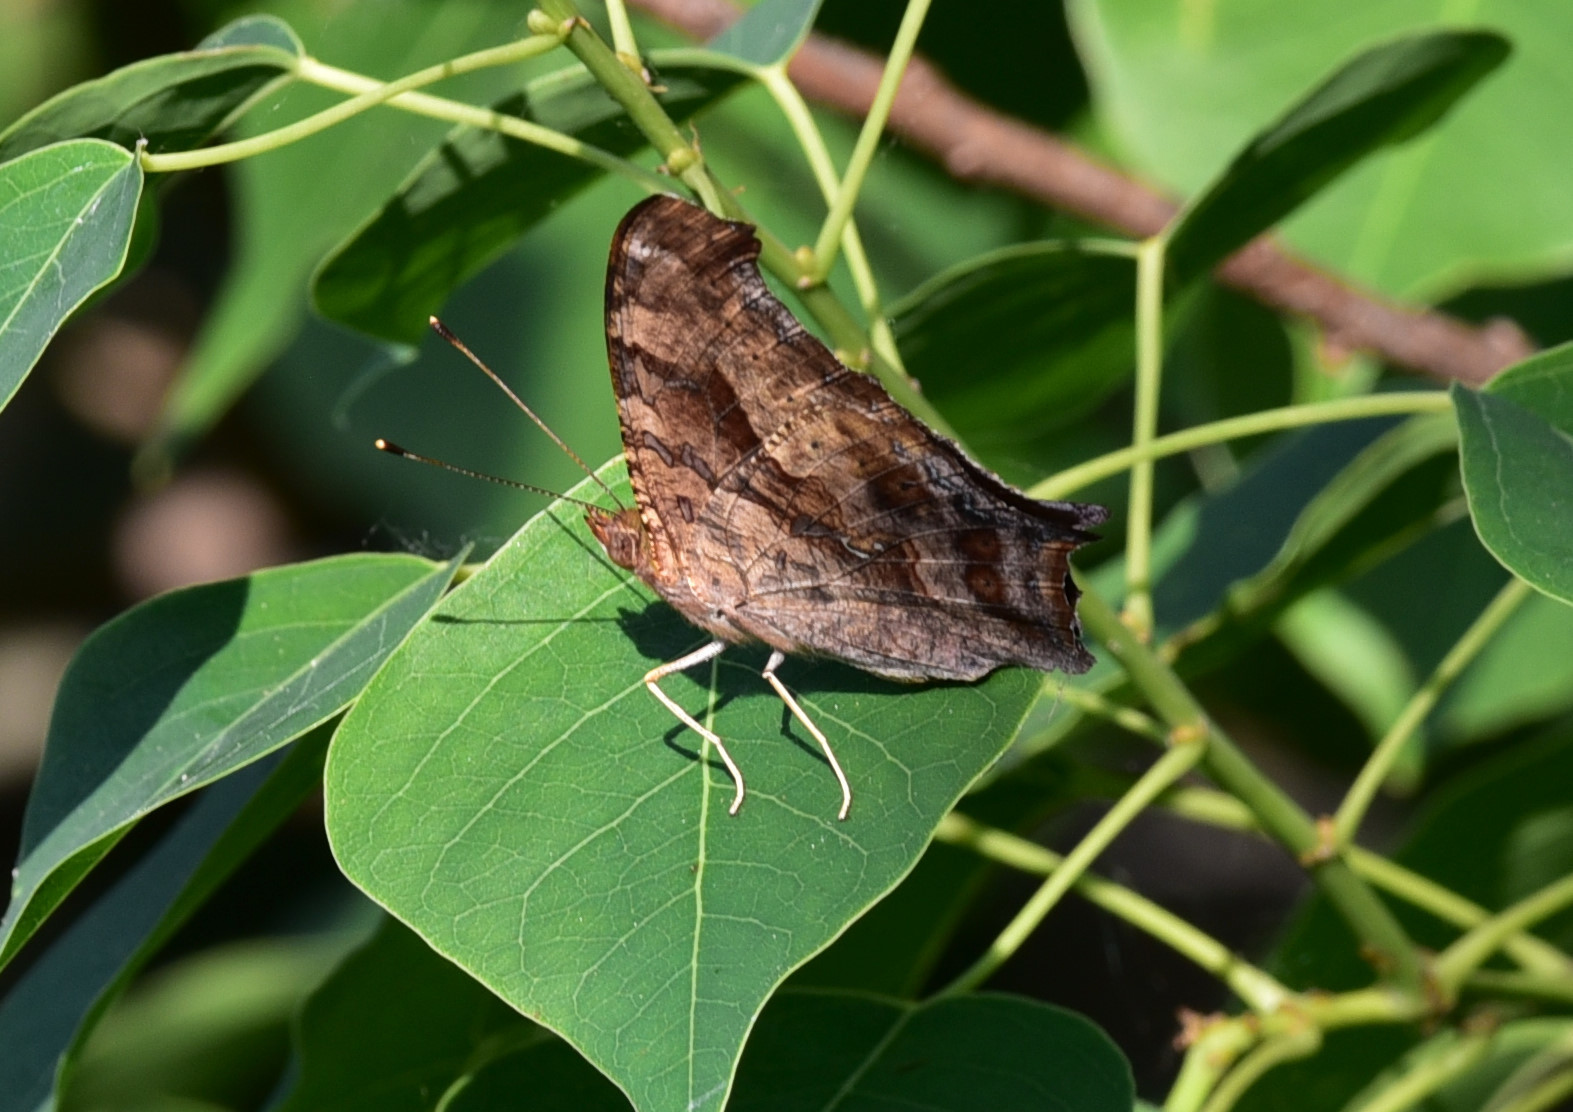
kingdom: Animalia
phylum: Arthropoda
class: Insecta
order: Lepidoptera
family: Nymphalidae
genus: Polygonia
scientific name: Polygonia interrogationis
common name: Question mark
